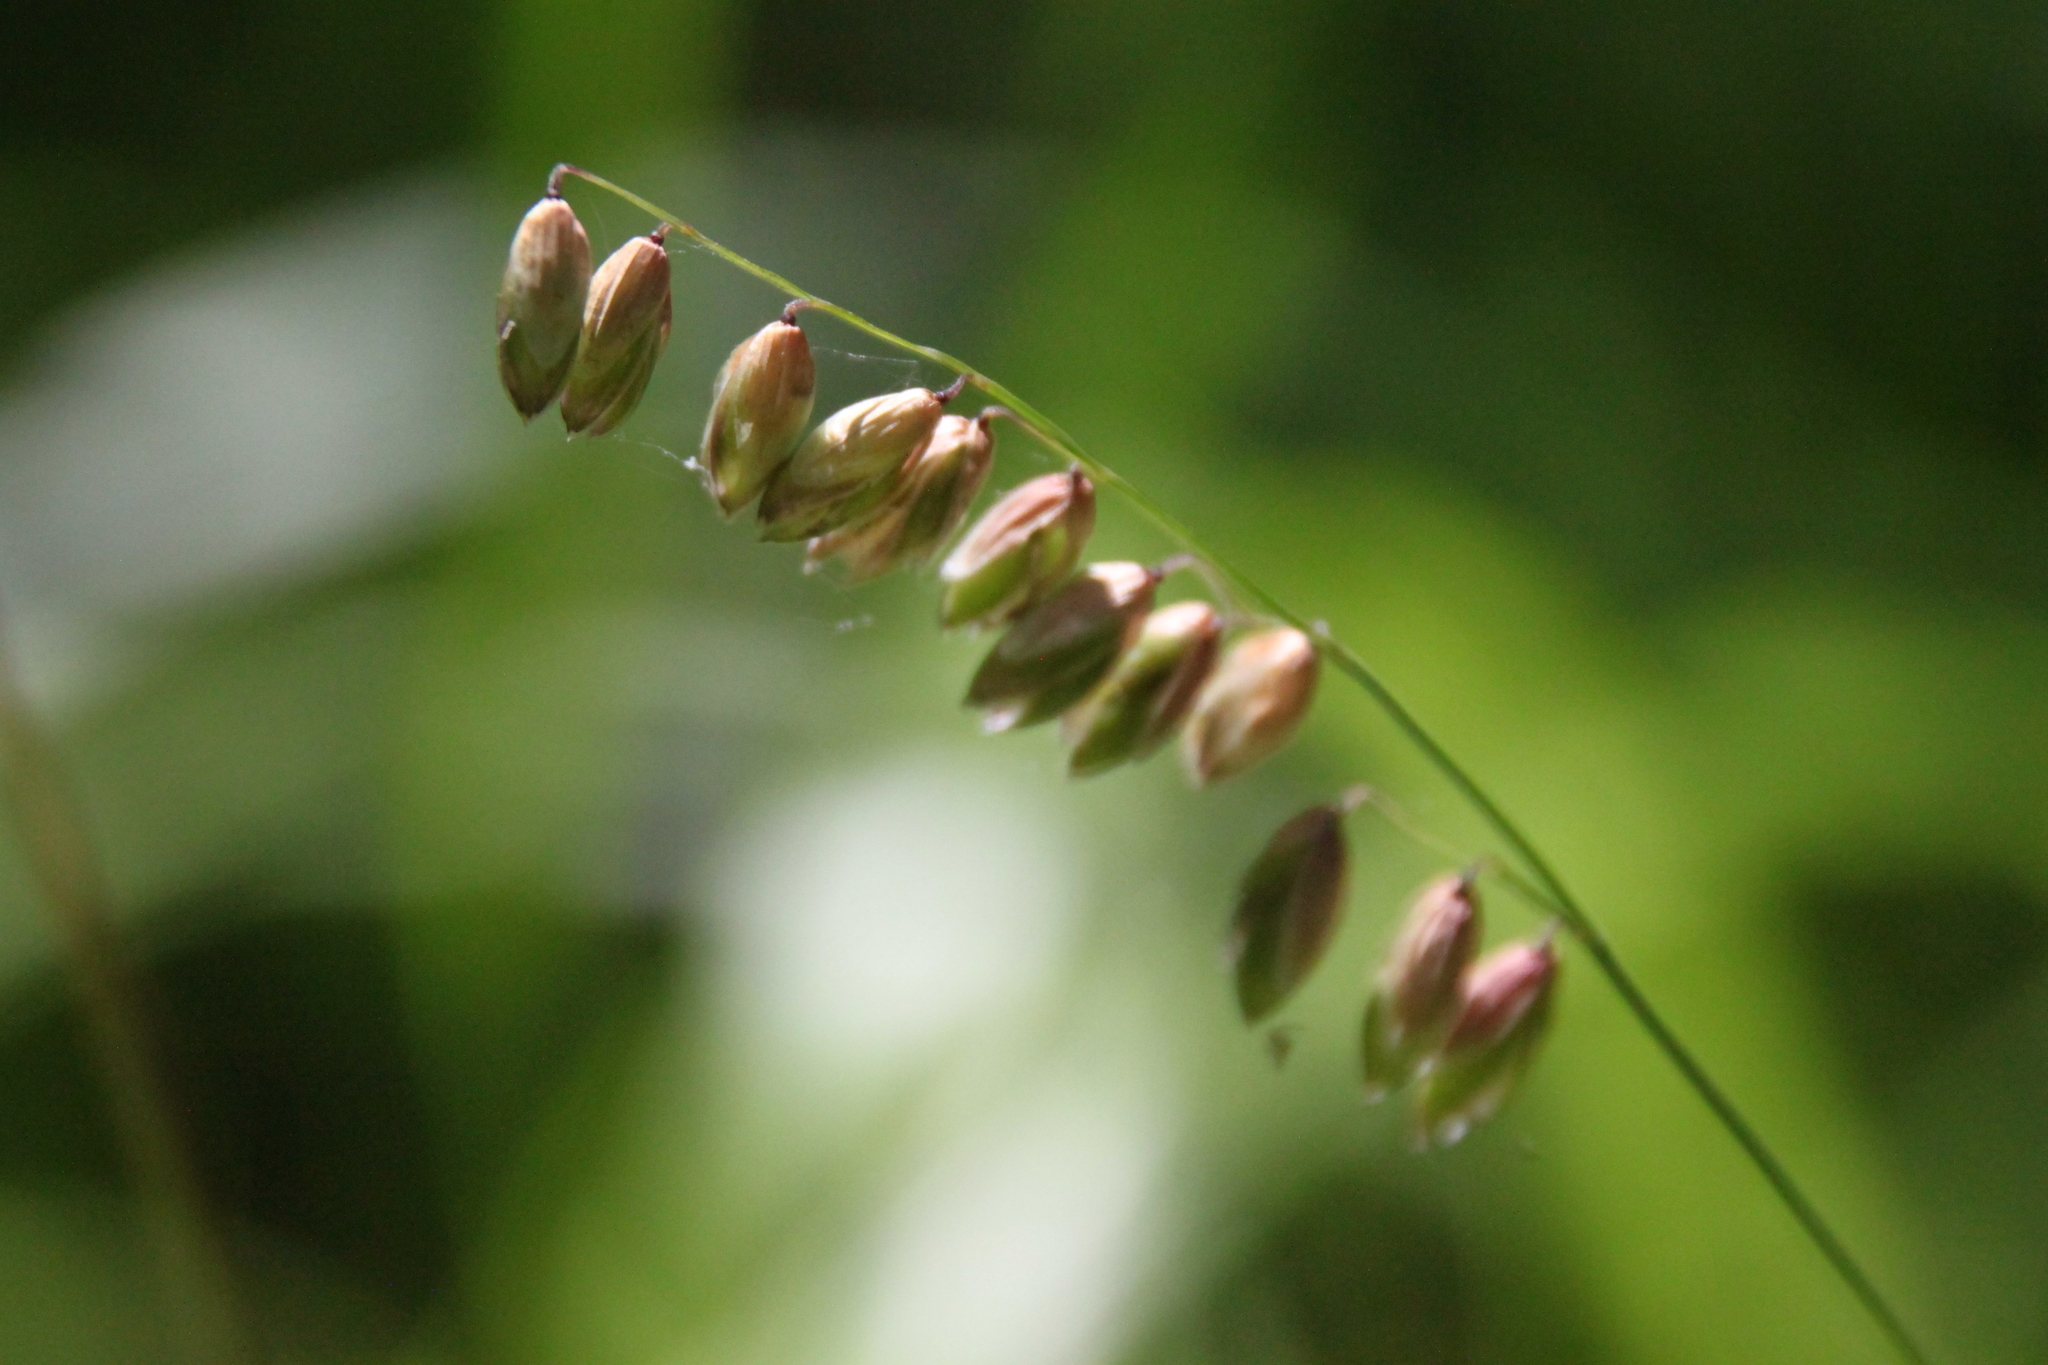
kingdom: Plantae
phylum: Tracheophyta
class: Liliopsida
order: Poales
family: Poaceae
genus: Melica
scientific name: Melica nutans
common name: Mountain melick
